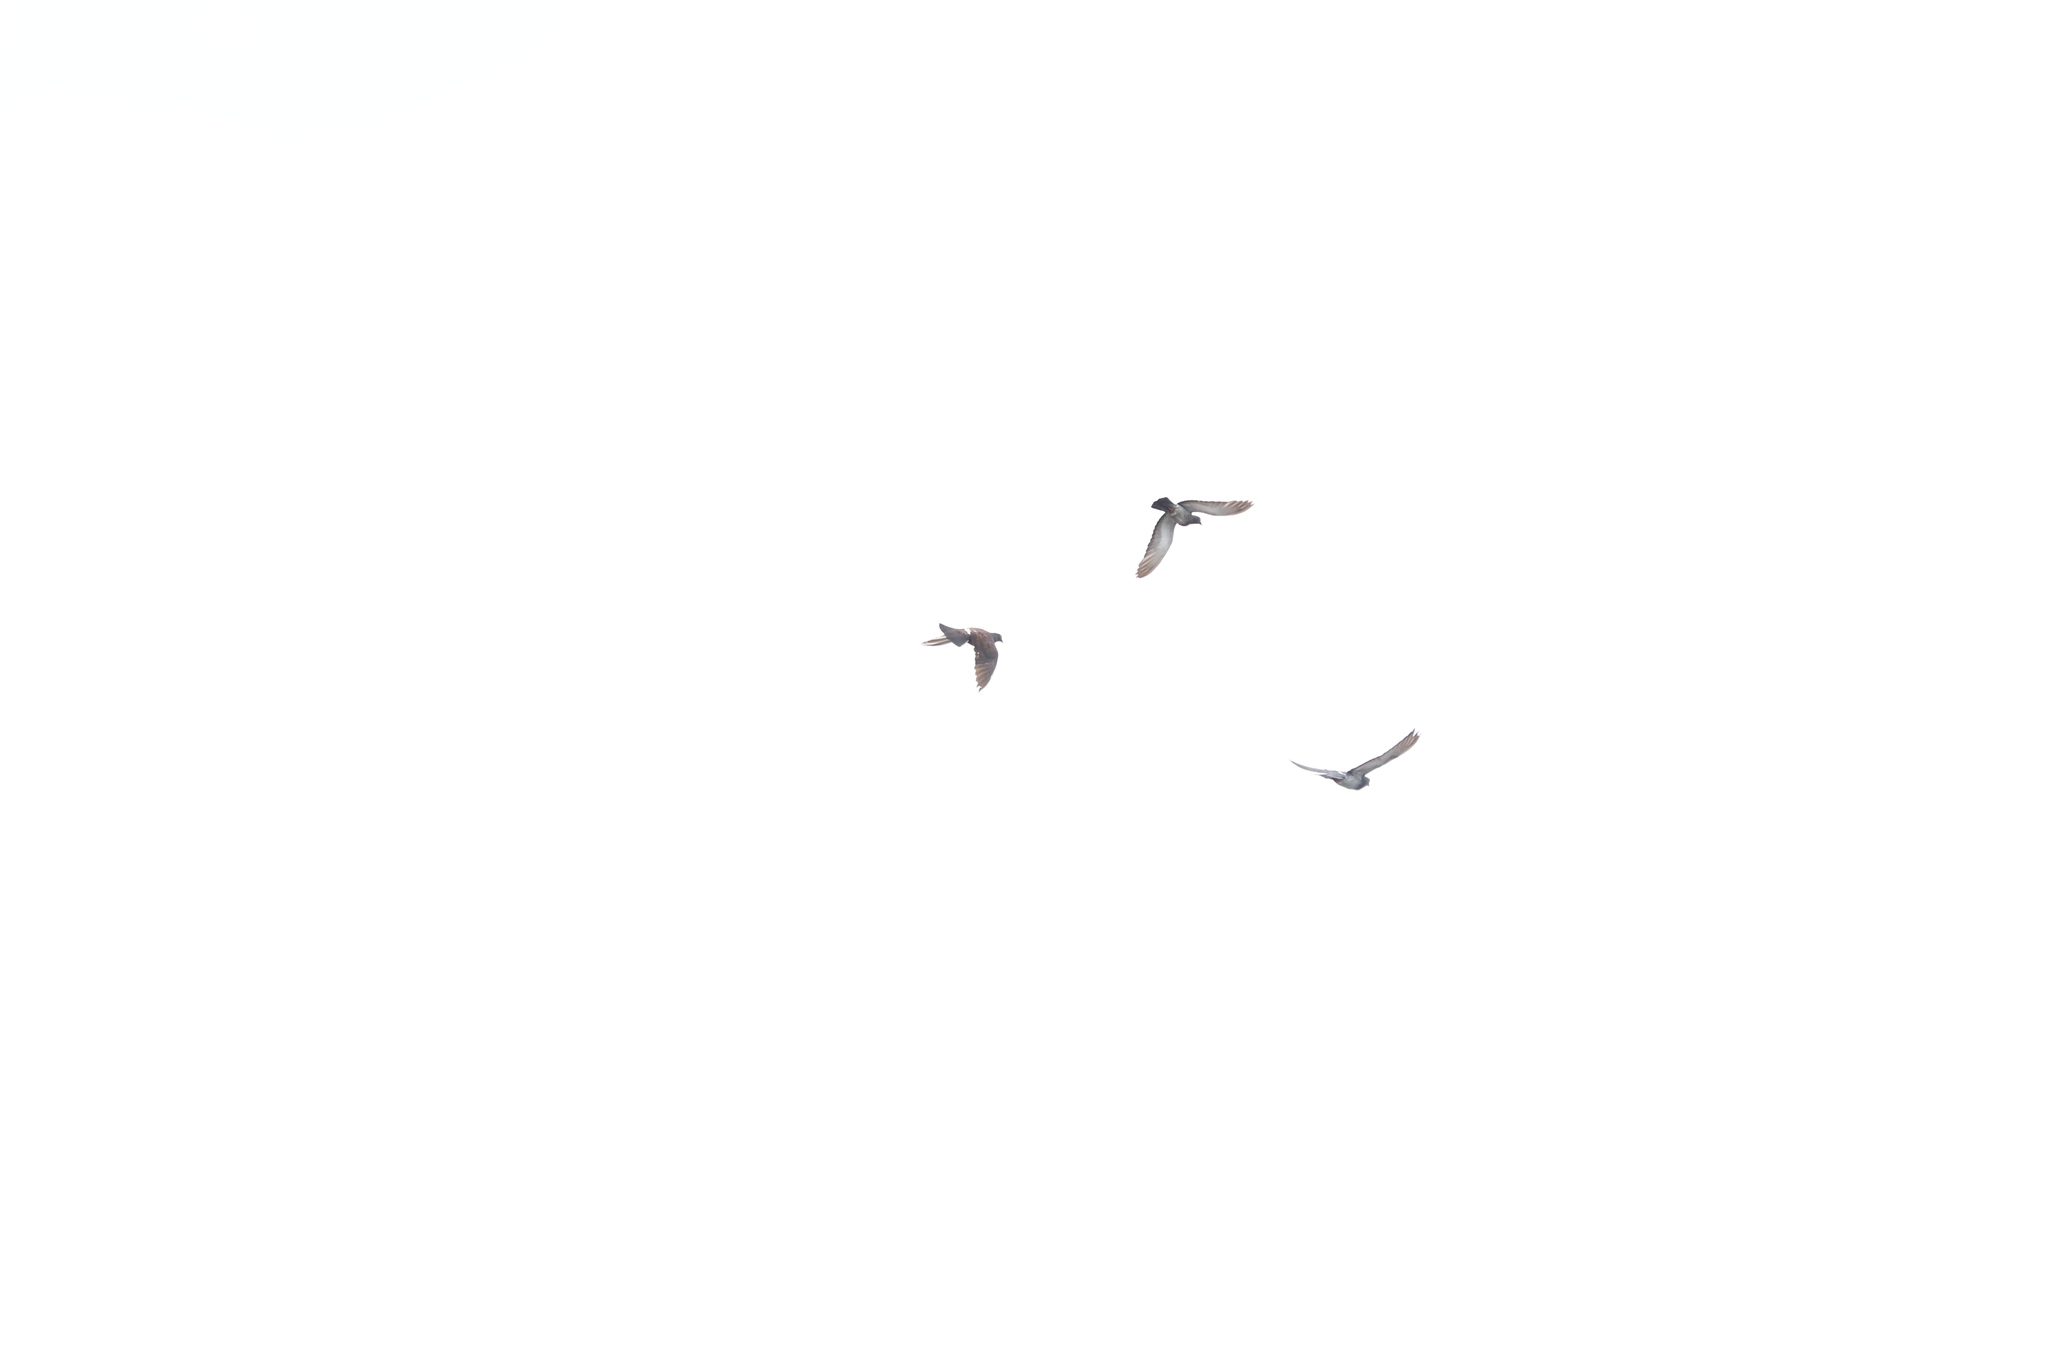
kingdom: Animalia
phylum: Chordata
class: Aves
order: Columbiformes
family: Columbidae
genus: Columba
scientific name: Columba livia
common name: Rock pigeon
